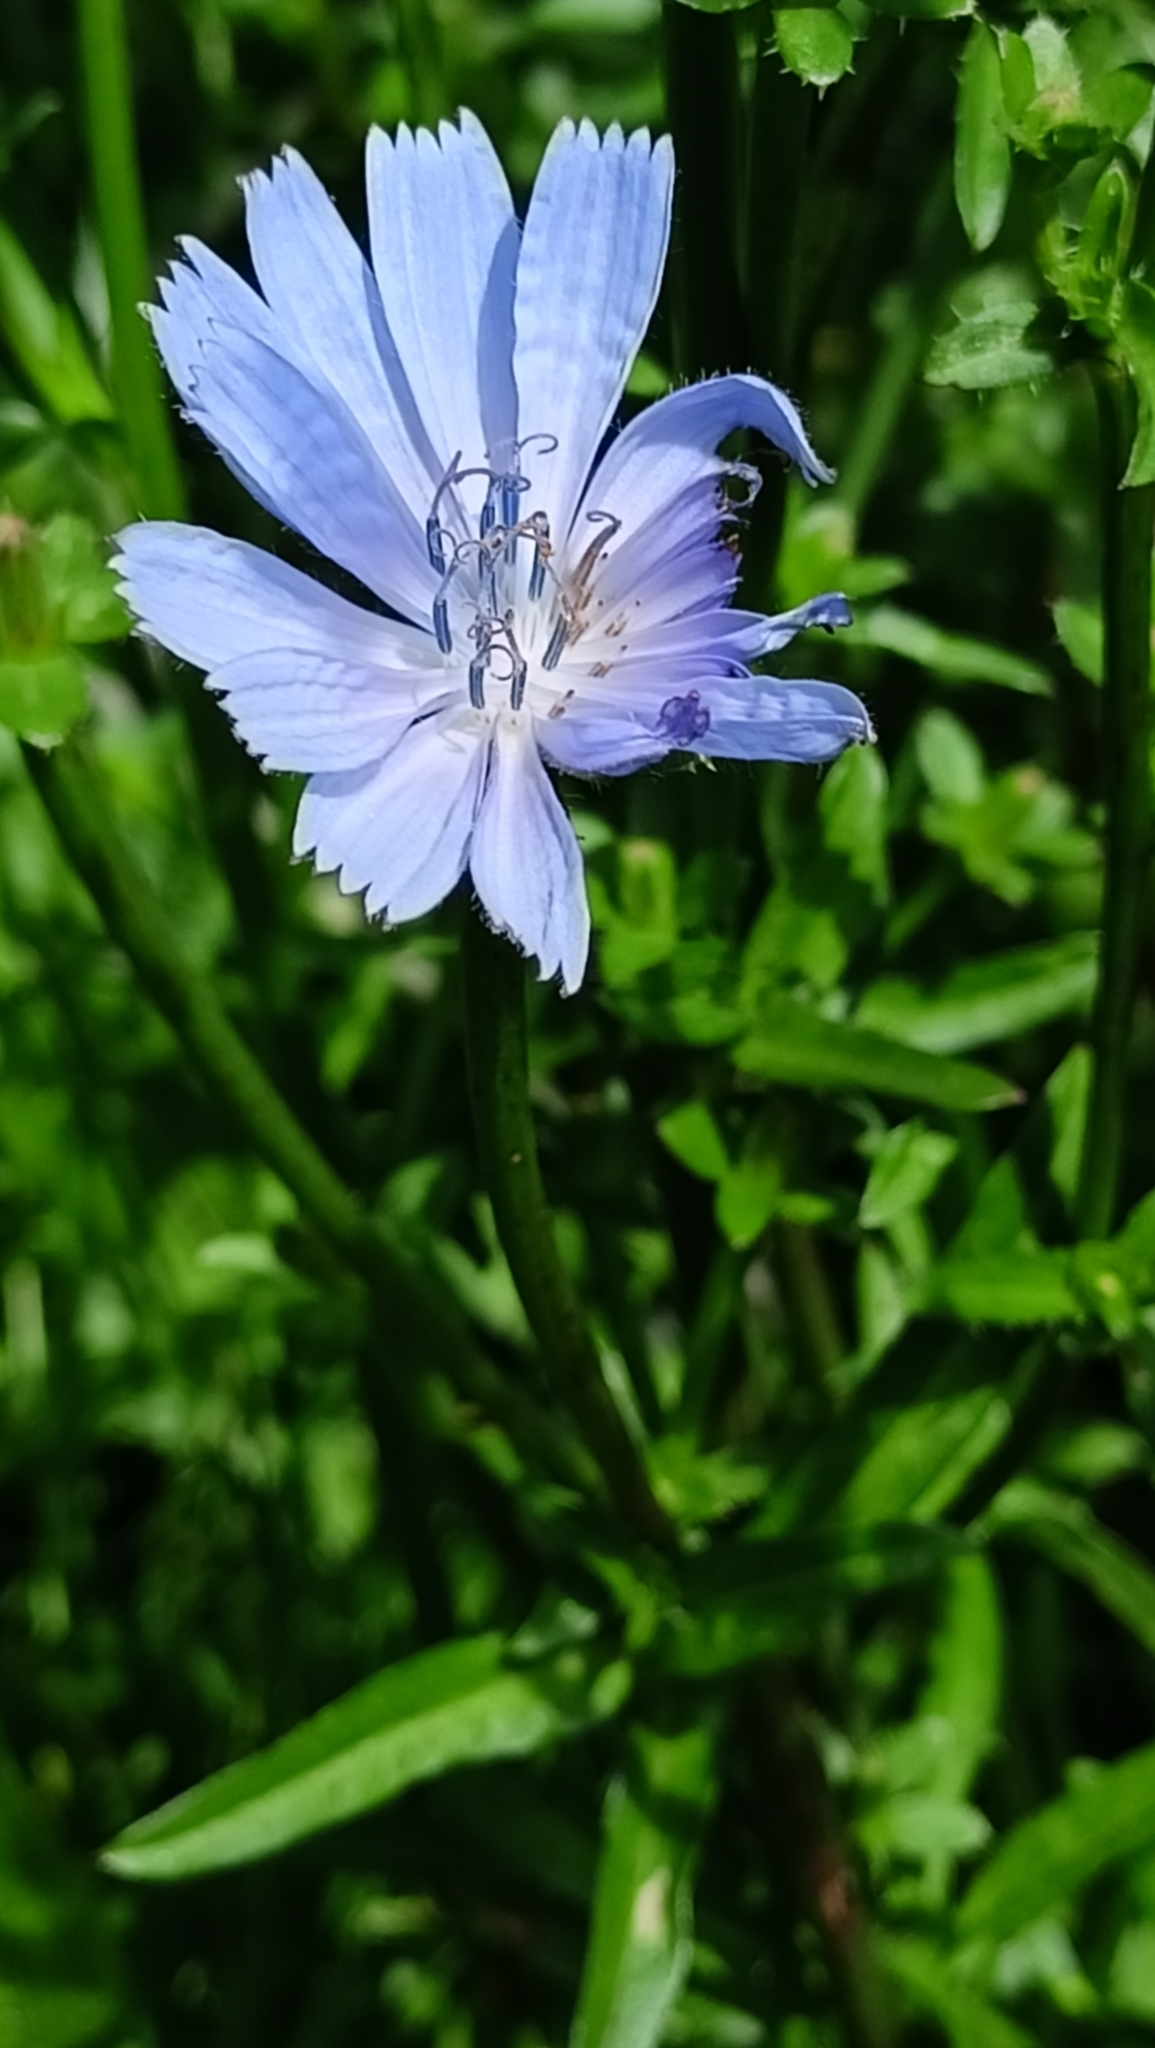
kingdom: Plantae
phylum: Tracheophyta
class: Magnoliopsida
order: Asterales
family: Asteraceae
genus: Cichorium
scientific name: Cichorium intybus
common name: Chicory
